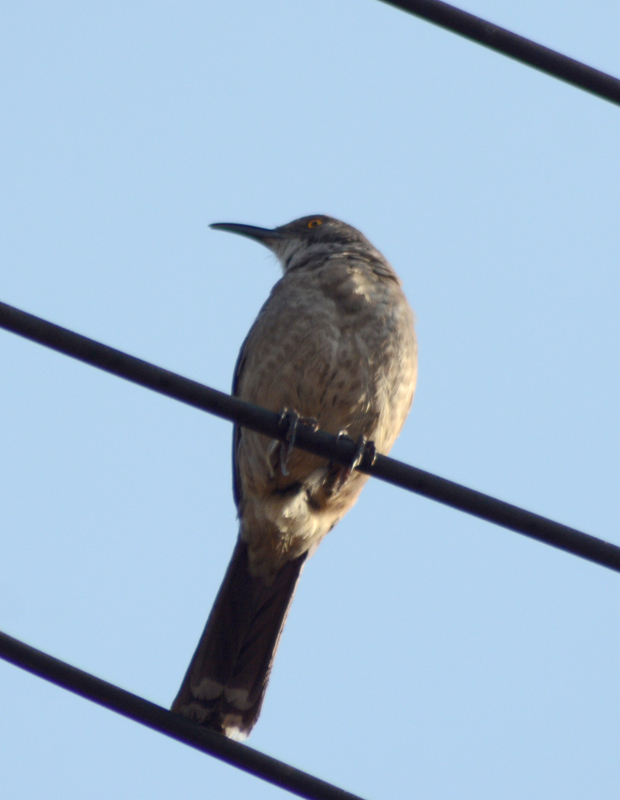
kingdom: Animalia
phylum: Chordata
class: Aves
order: Passeriformes
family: Mimidae
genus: Toxostoma
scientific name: Toxostoma curvirostre
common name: Curve-billed thrasher
